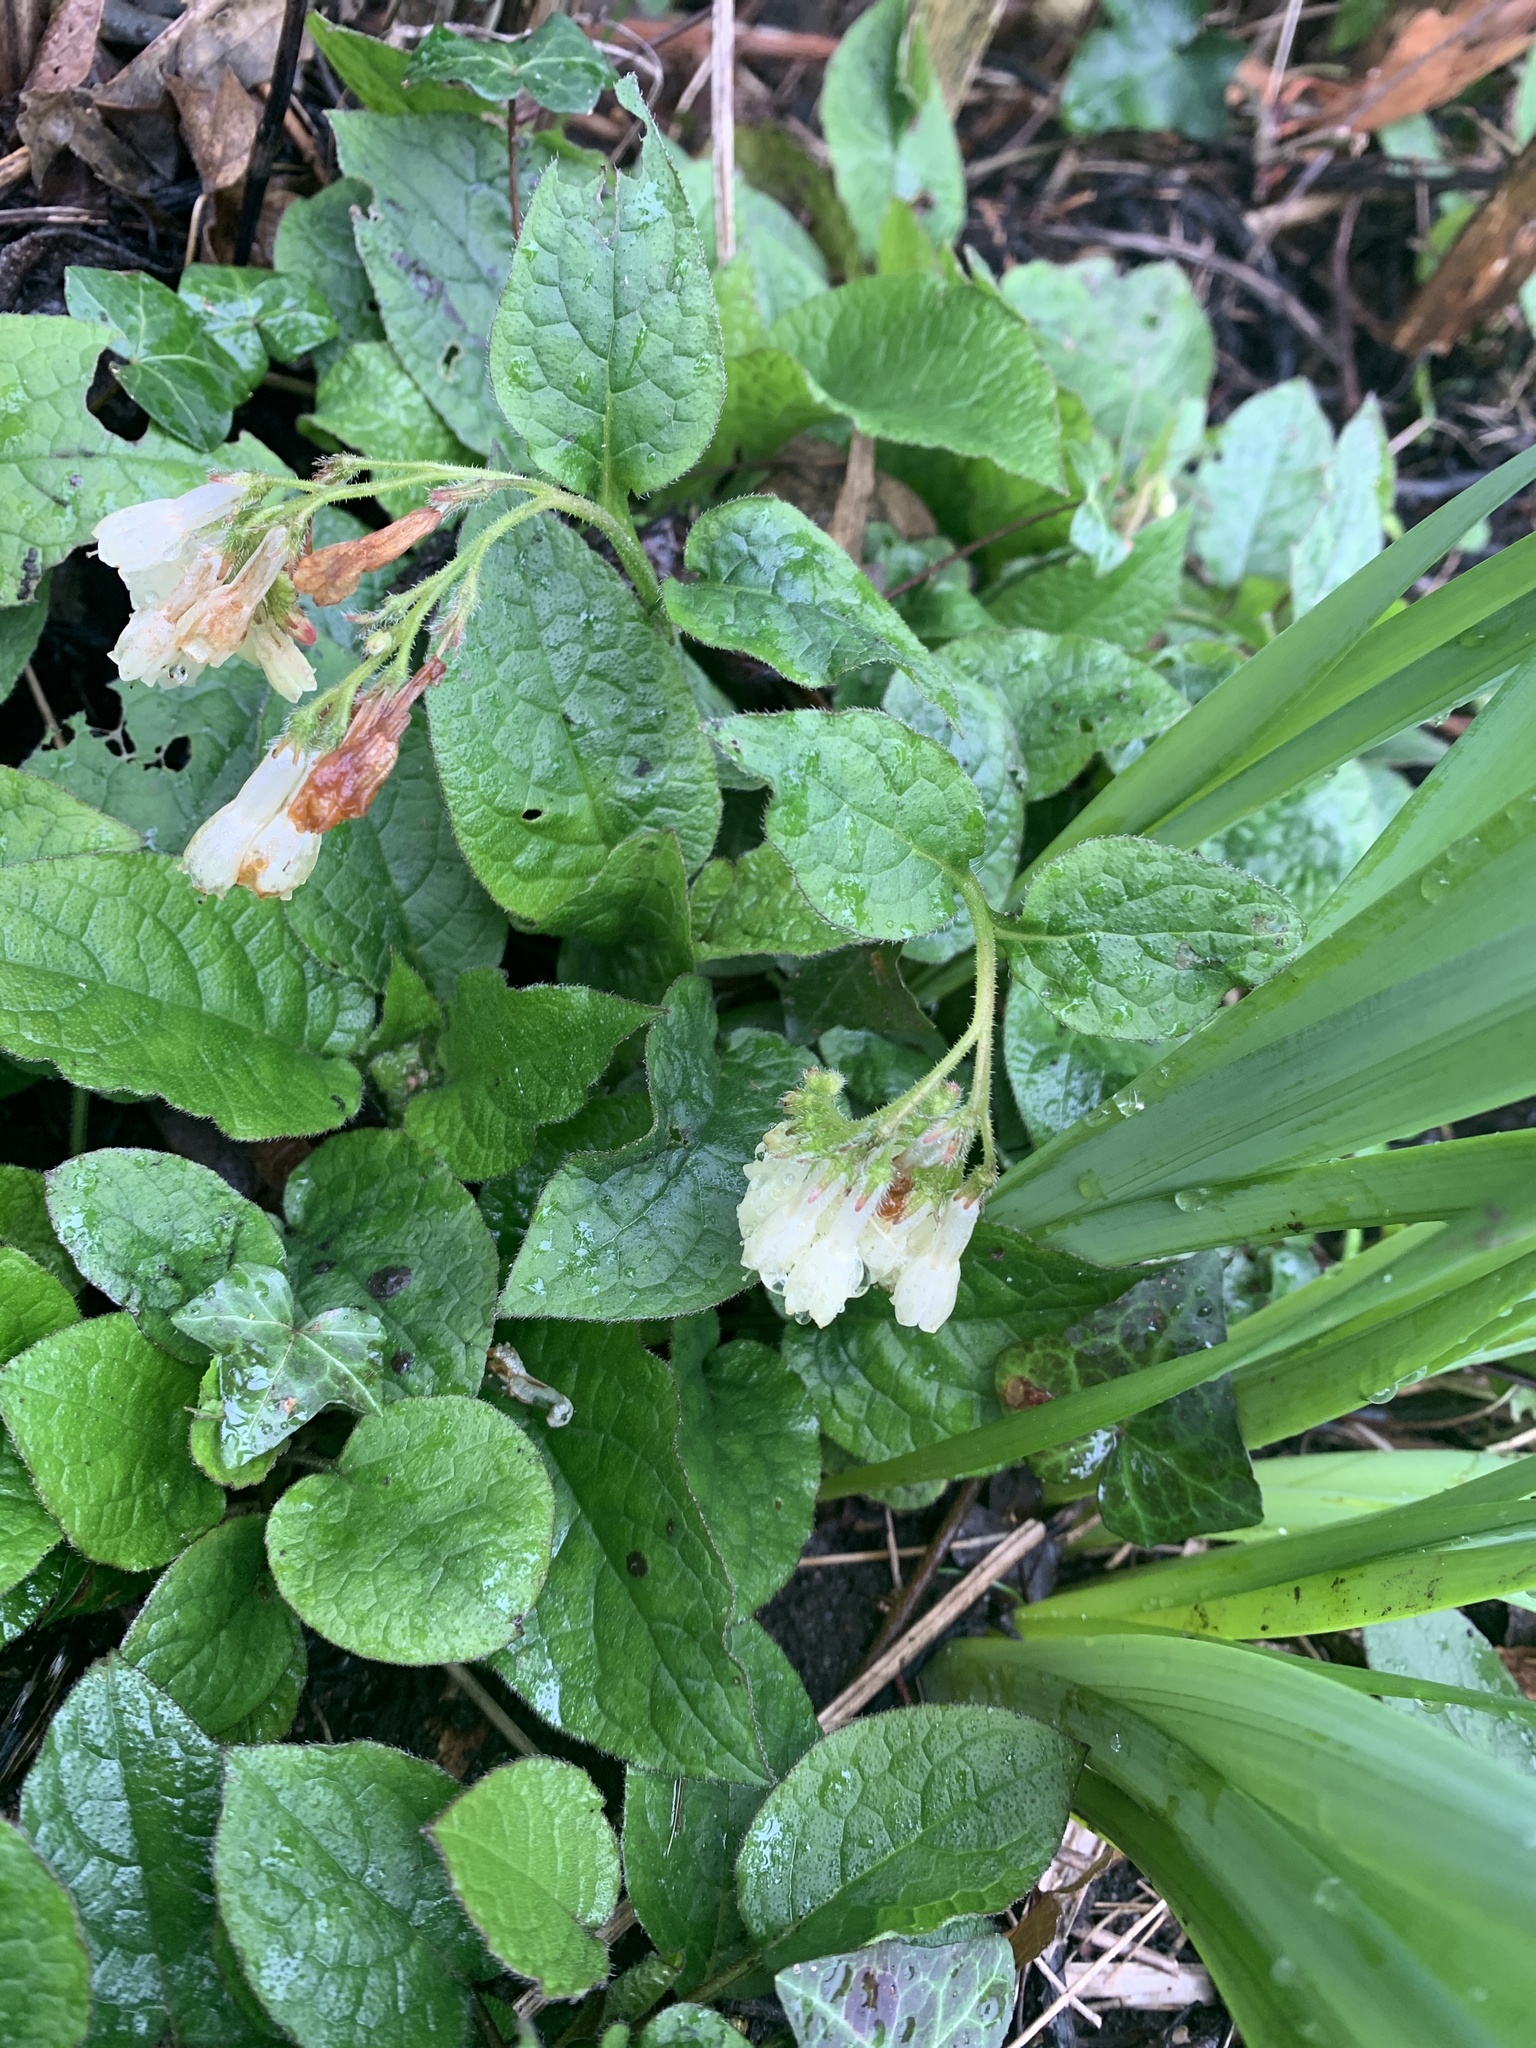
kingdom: Plantae
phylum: Tracheophyta
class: Magnoliopsida
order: Boraginales
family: Boraginaceae
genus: Symphytum
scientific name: Symphytum grandiflorum
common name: Creeping comfrey
